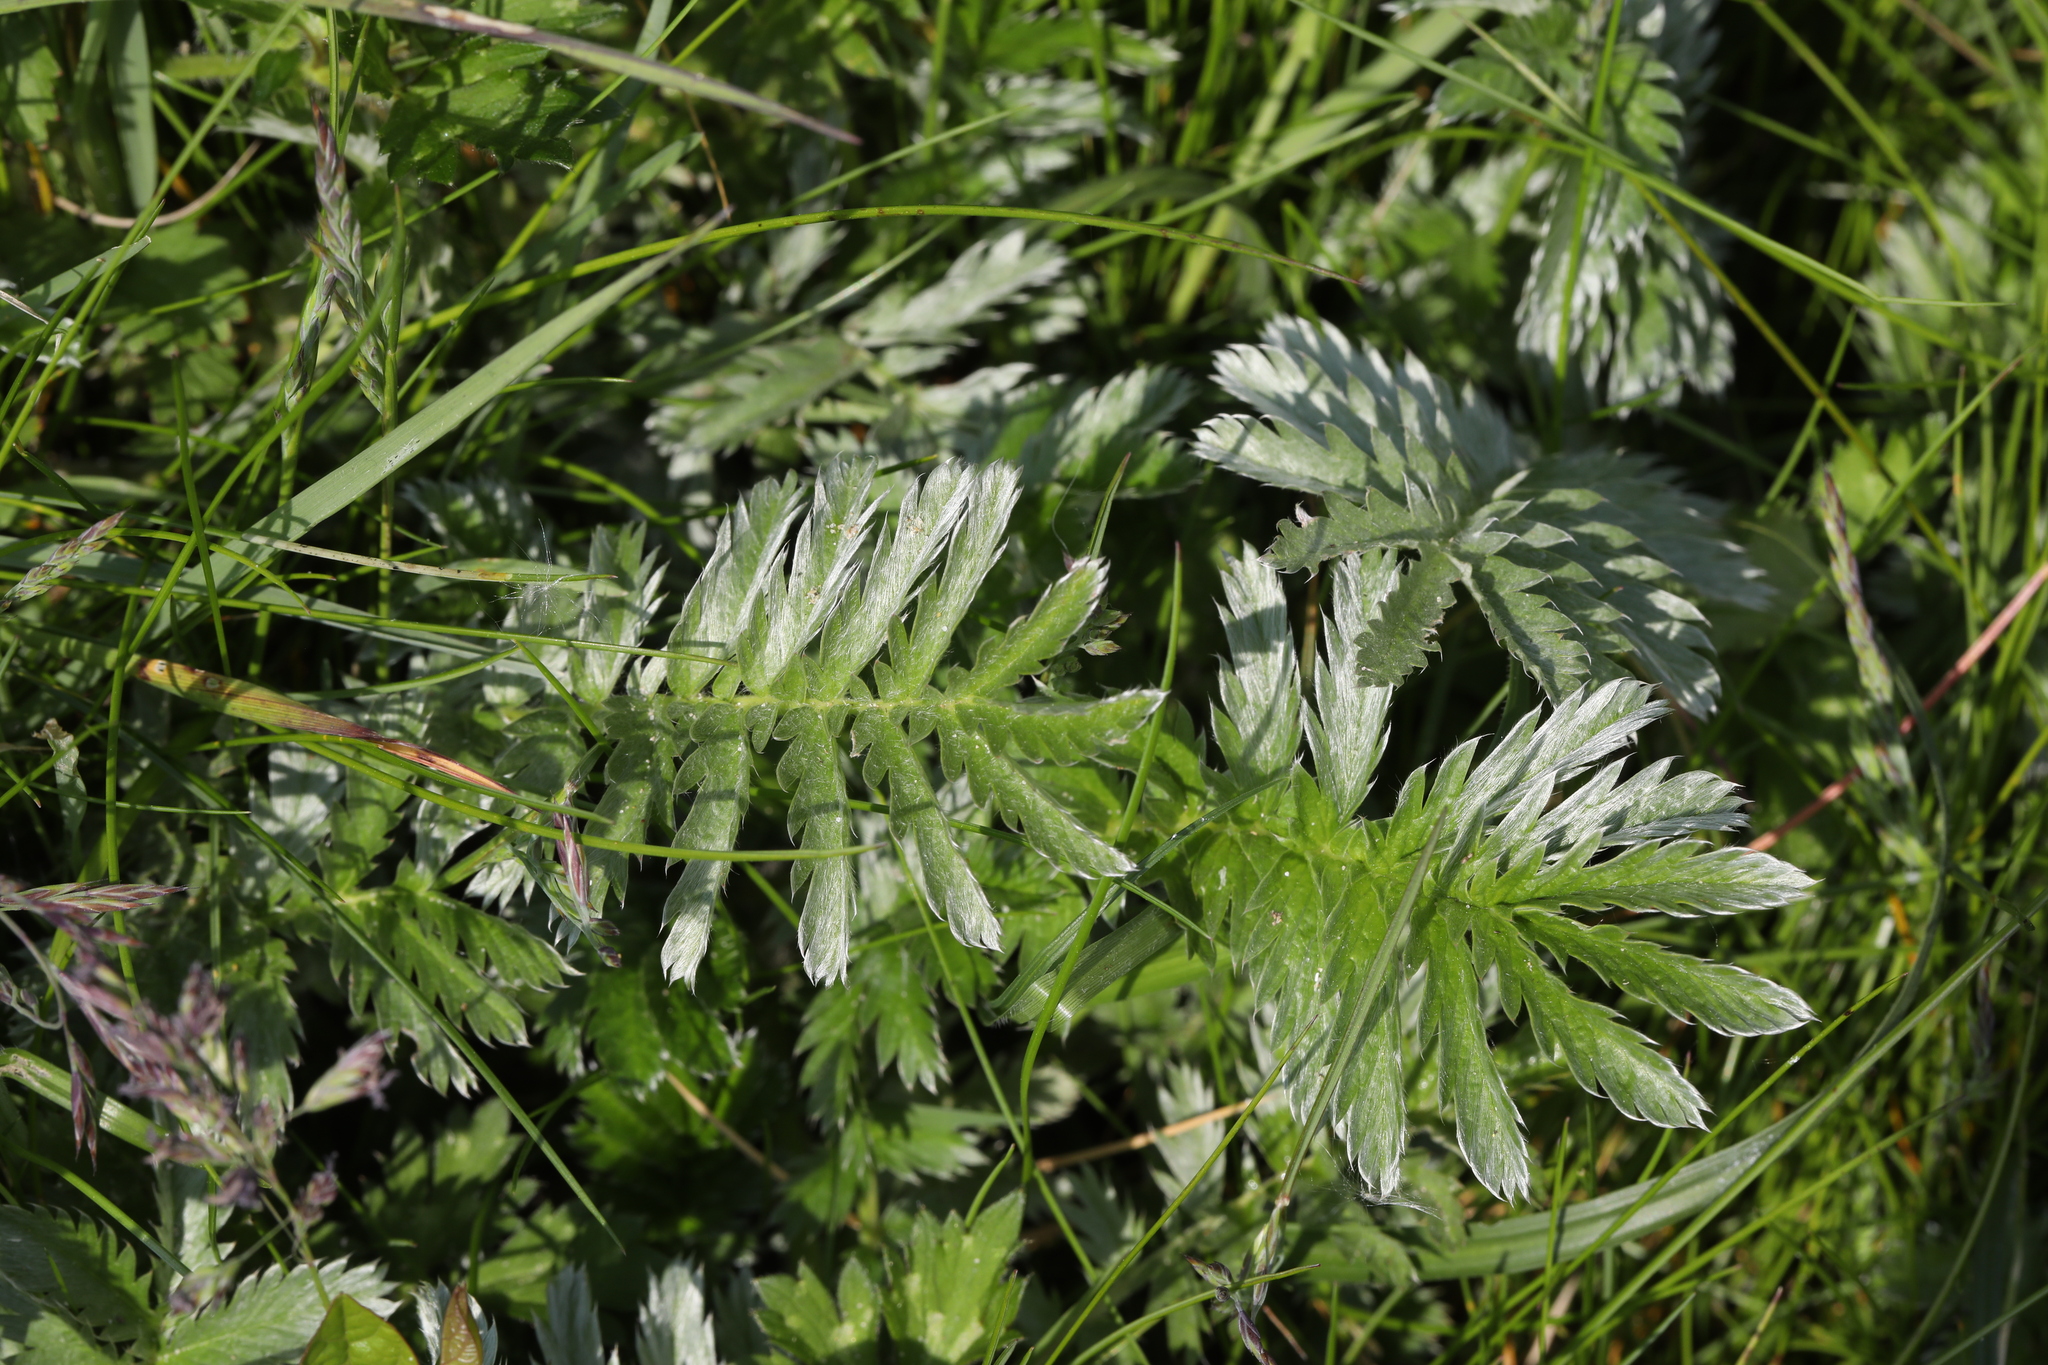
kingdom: Plantae
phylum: Tracheophyta
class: Magnoliopsida
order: Rosales
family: Rosaceae
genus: Argentina
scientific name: Argentina anserina
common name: Common silverweed
